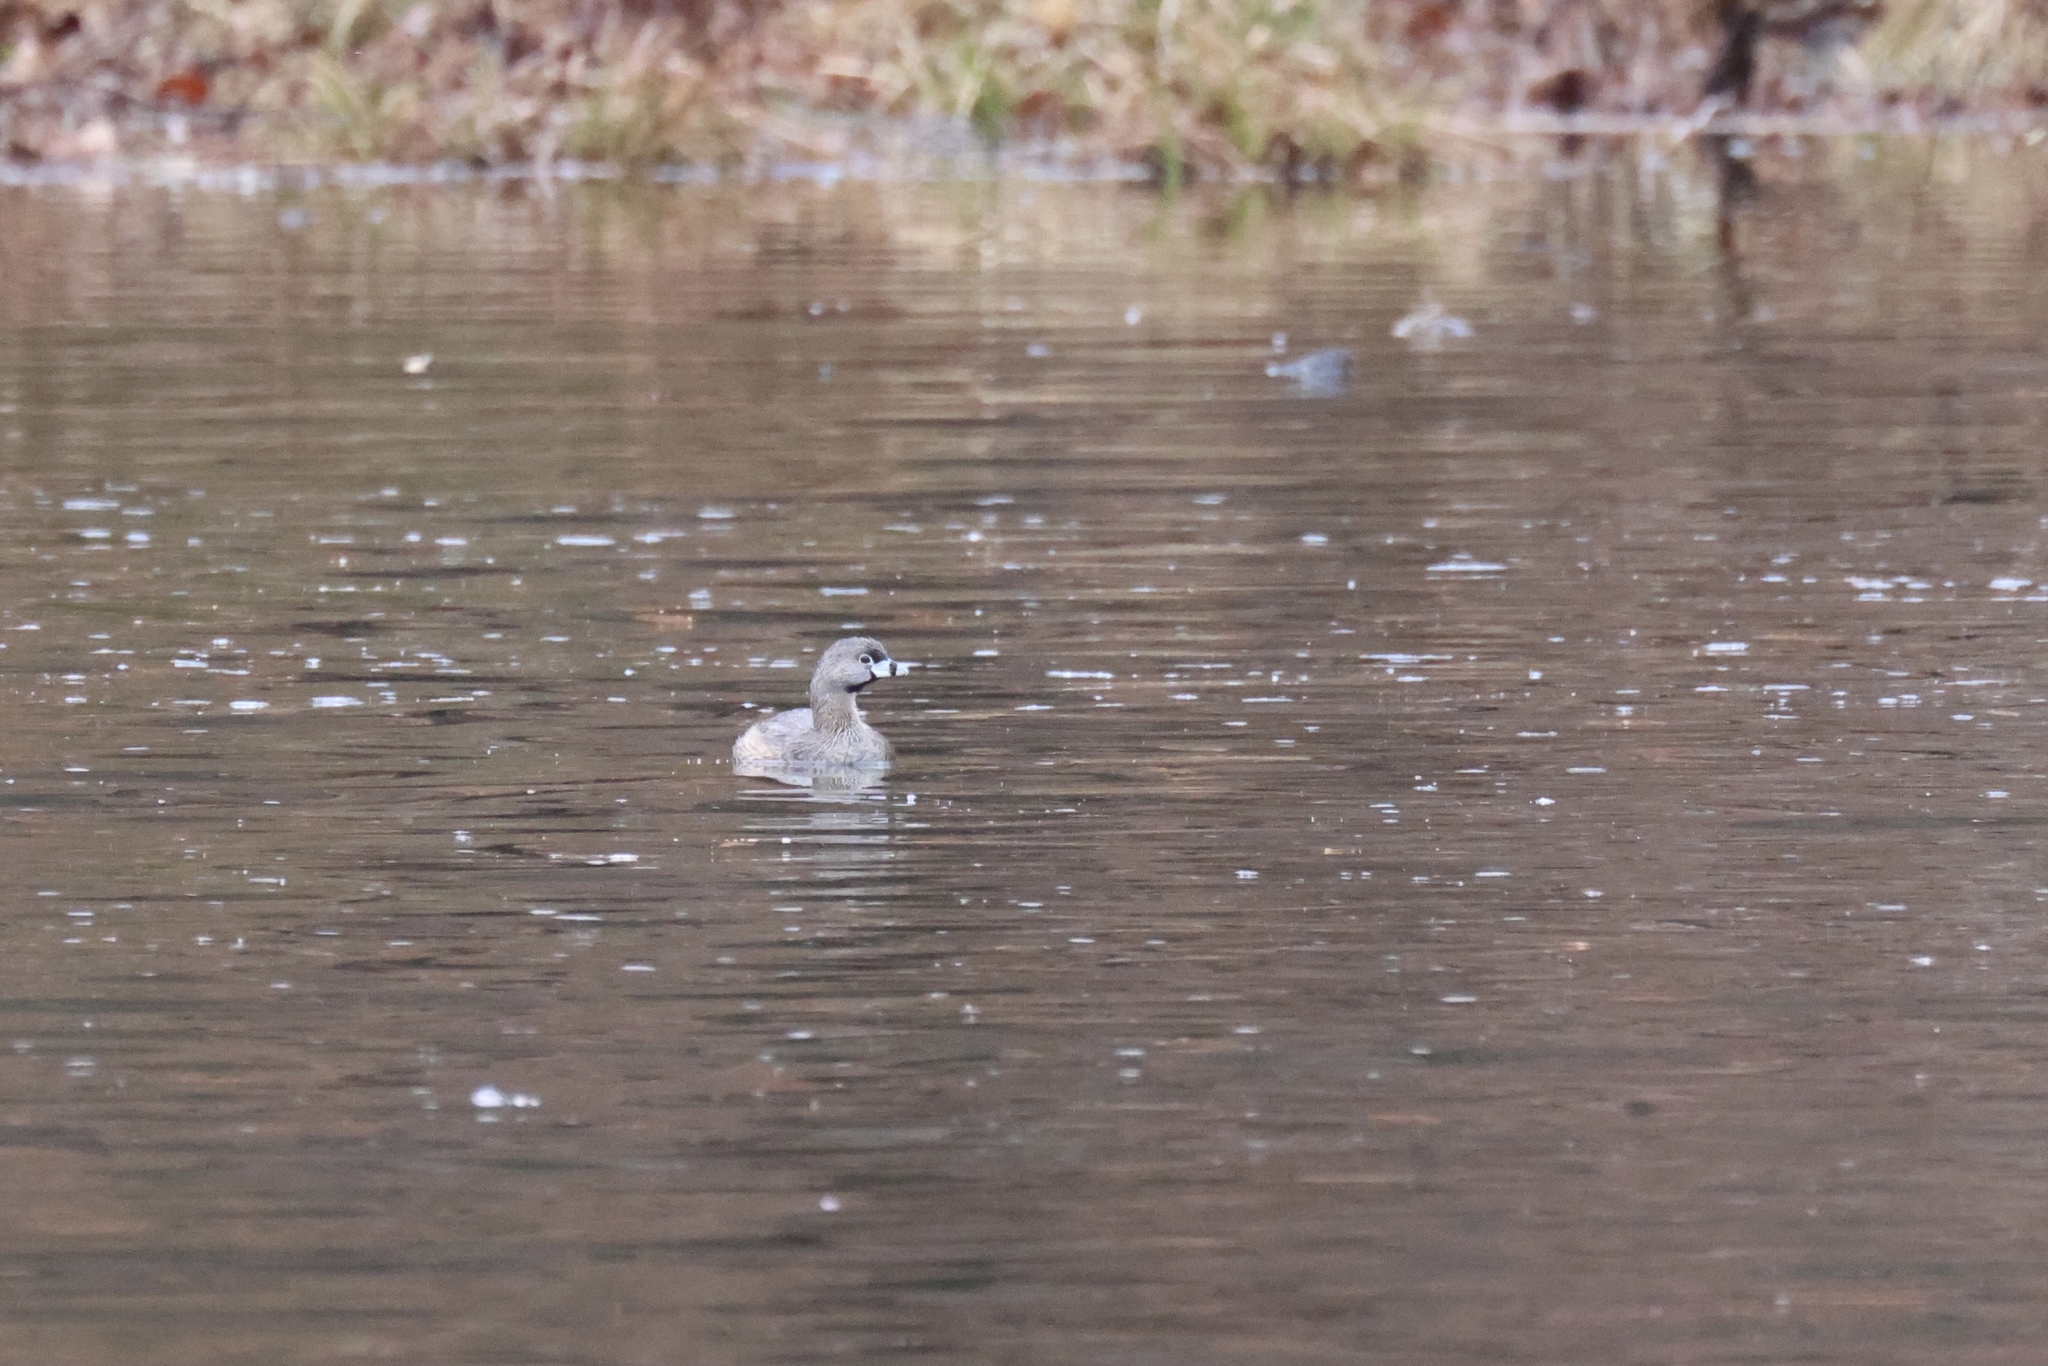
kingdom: Animalia
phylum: Chordata
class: Aves
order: Podicipediformes
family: Podicipedidae
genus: Podilymbus
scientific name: Podilymbus podiceps
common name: Pied-billed grebe
